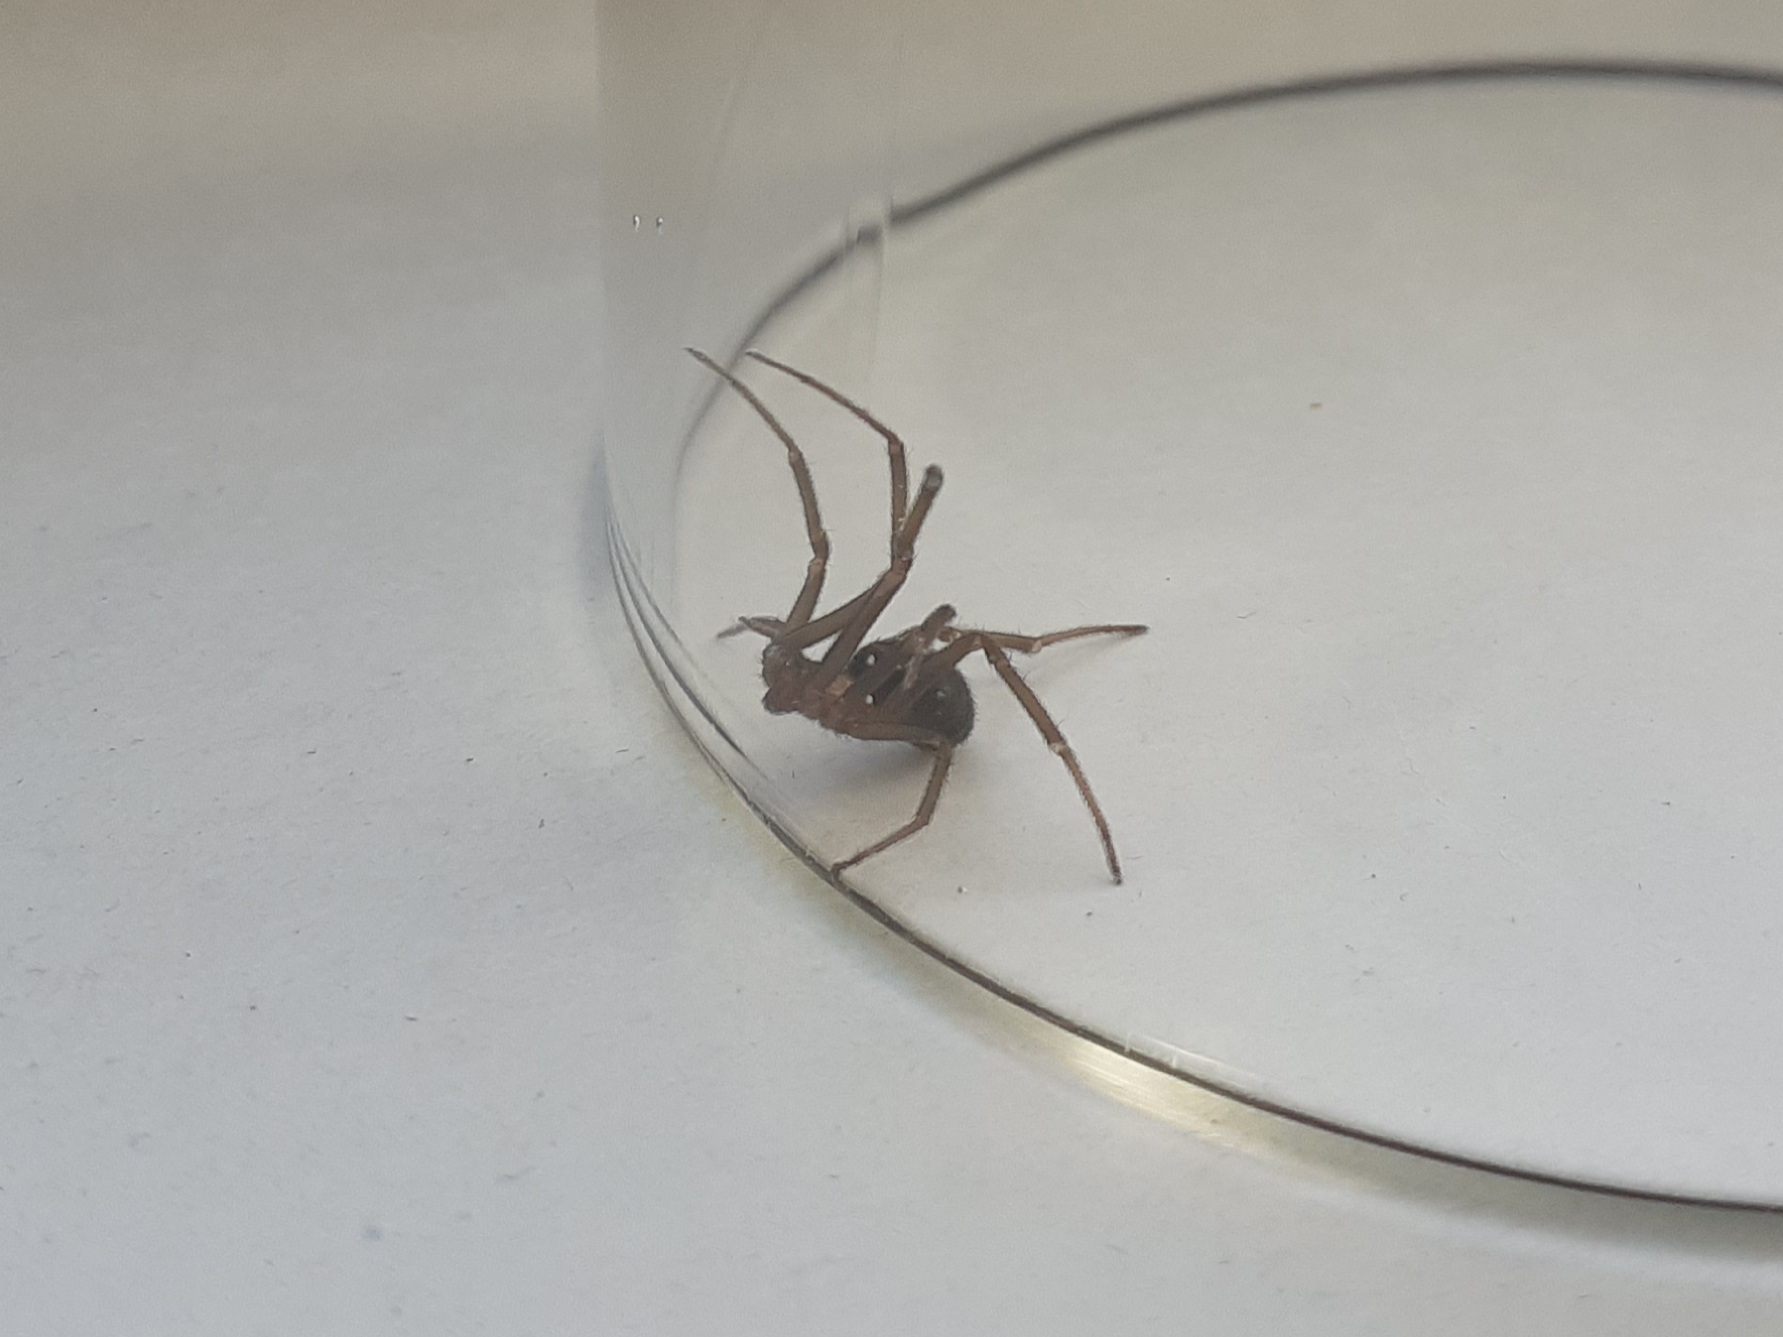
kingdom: Animalia
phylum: Arthropoda
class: Arachnida
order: Araneae
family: Theridiidae
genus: Steatoda
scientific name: Steatoda grossa
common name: False black widow
